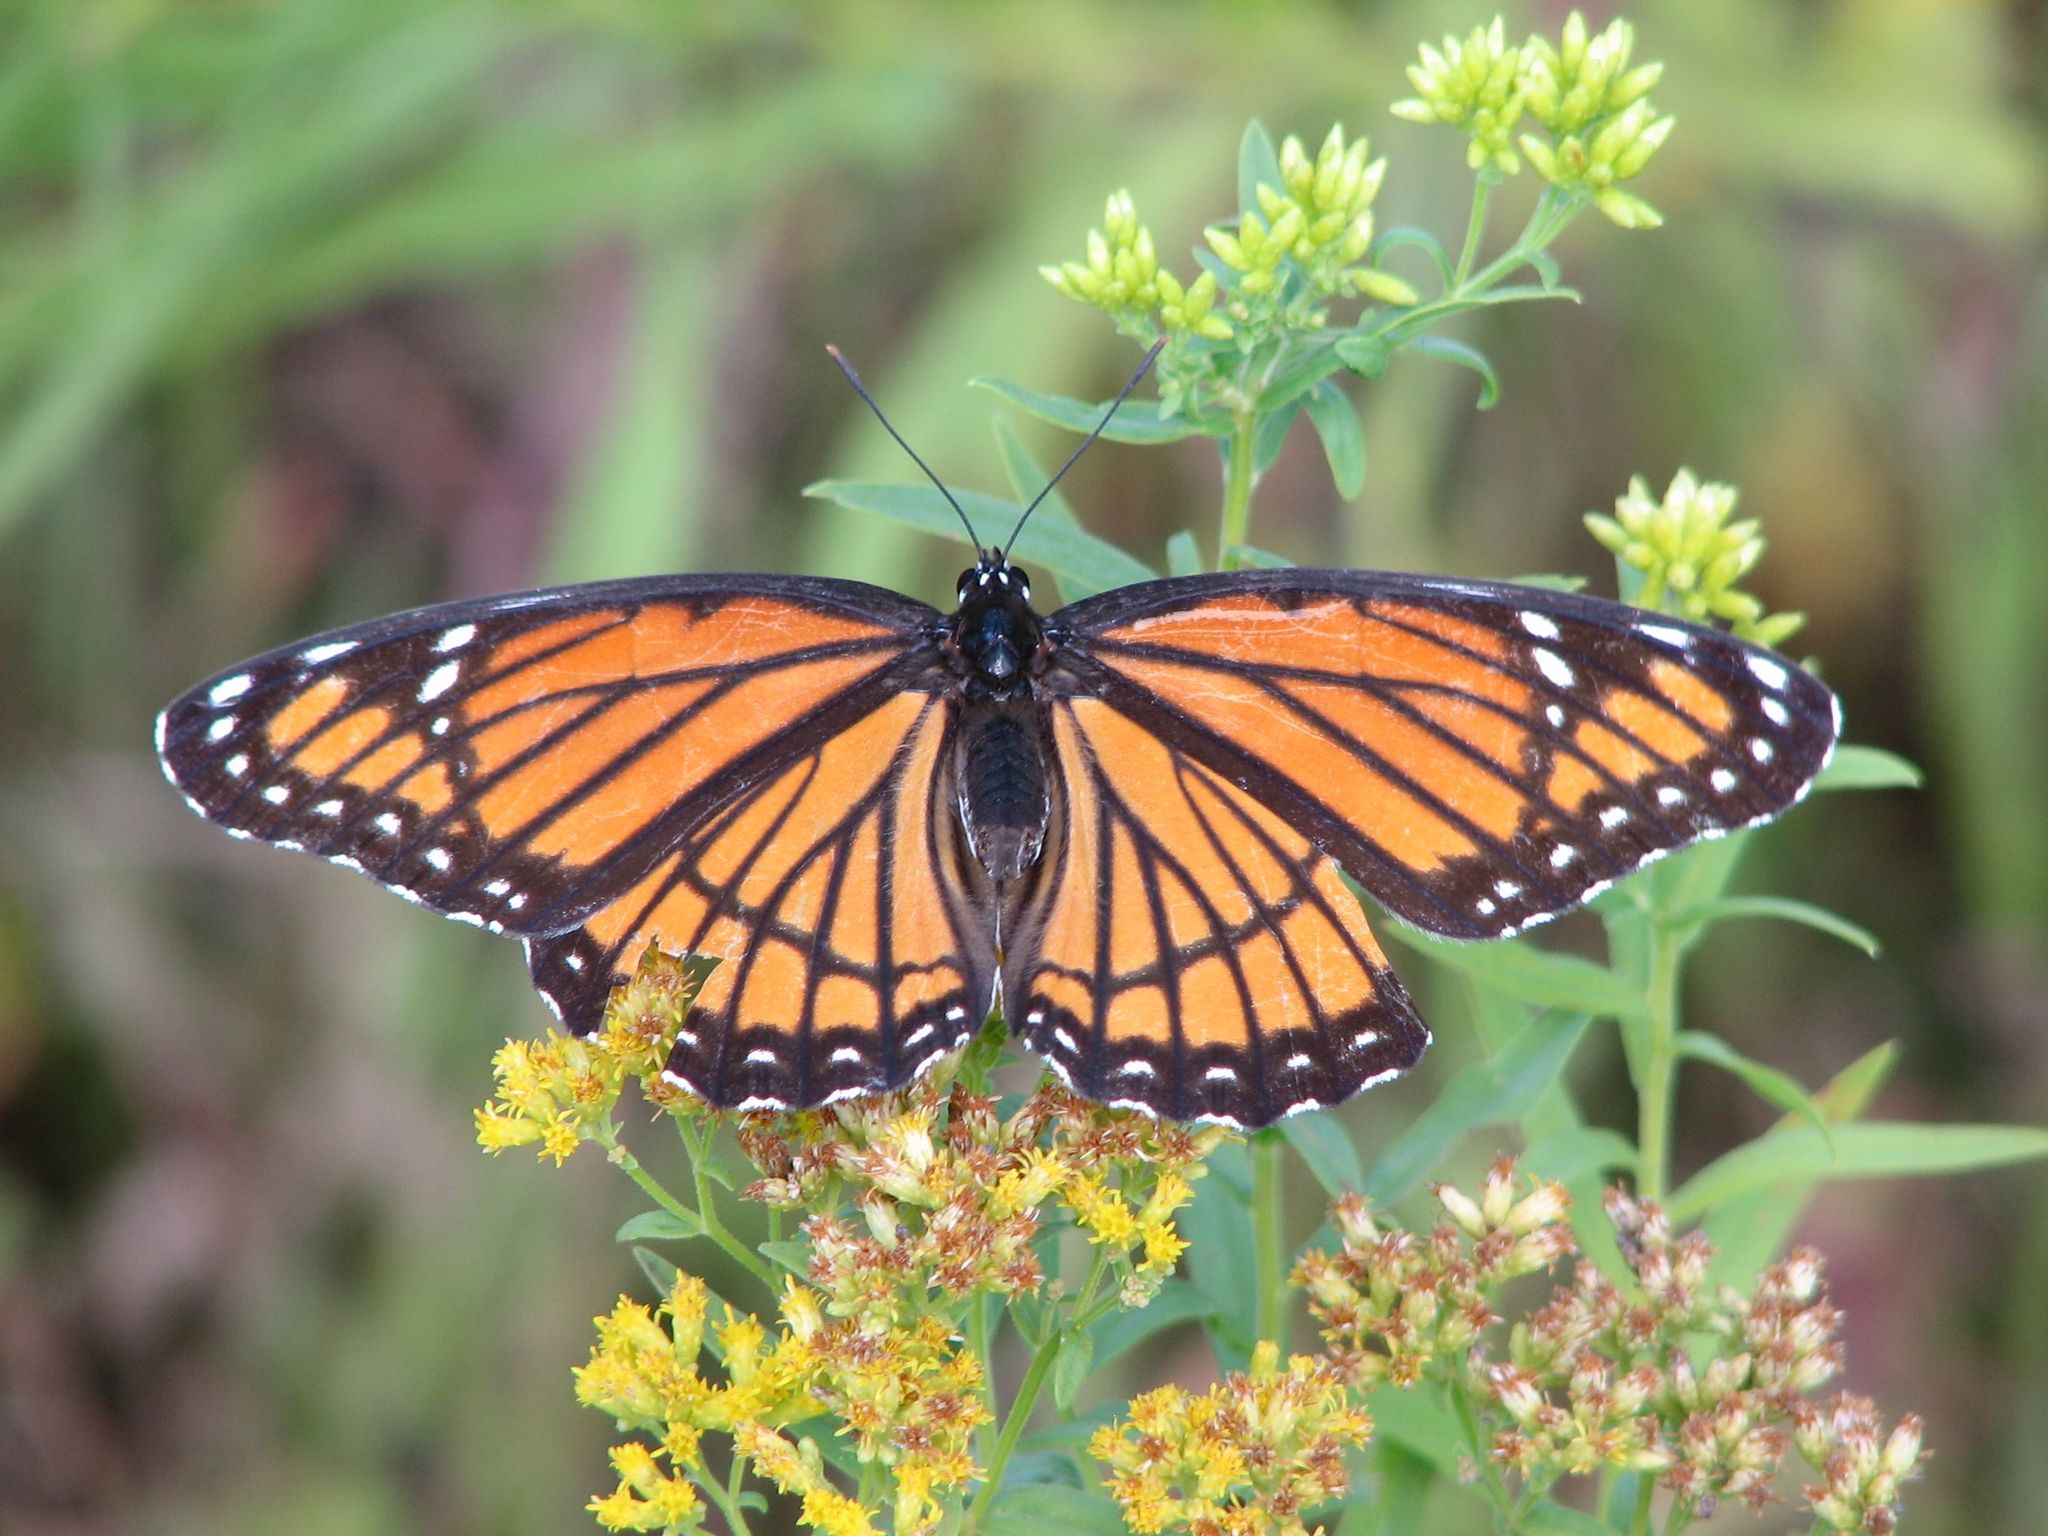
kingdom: Animalia
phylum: Arthropoda
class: Insecta
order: Lepidoptera
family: Nymphalidae
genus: Limenitis
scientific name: Limenitis archippus
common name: Viceroy
